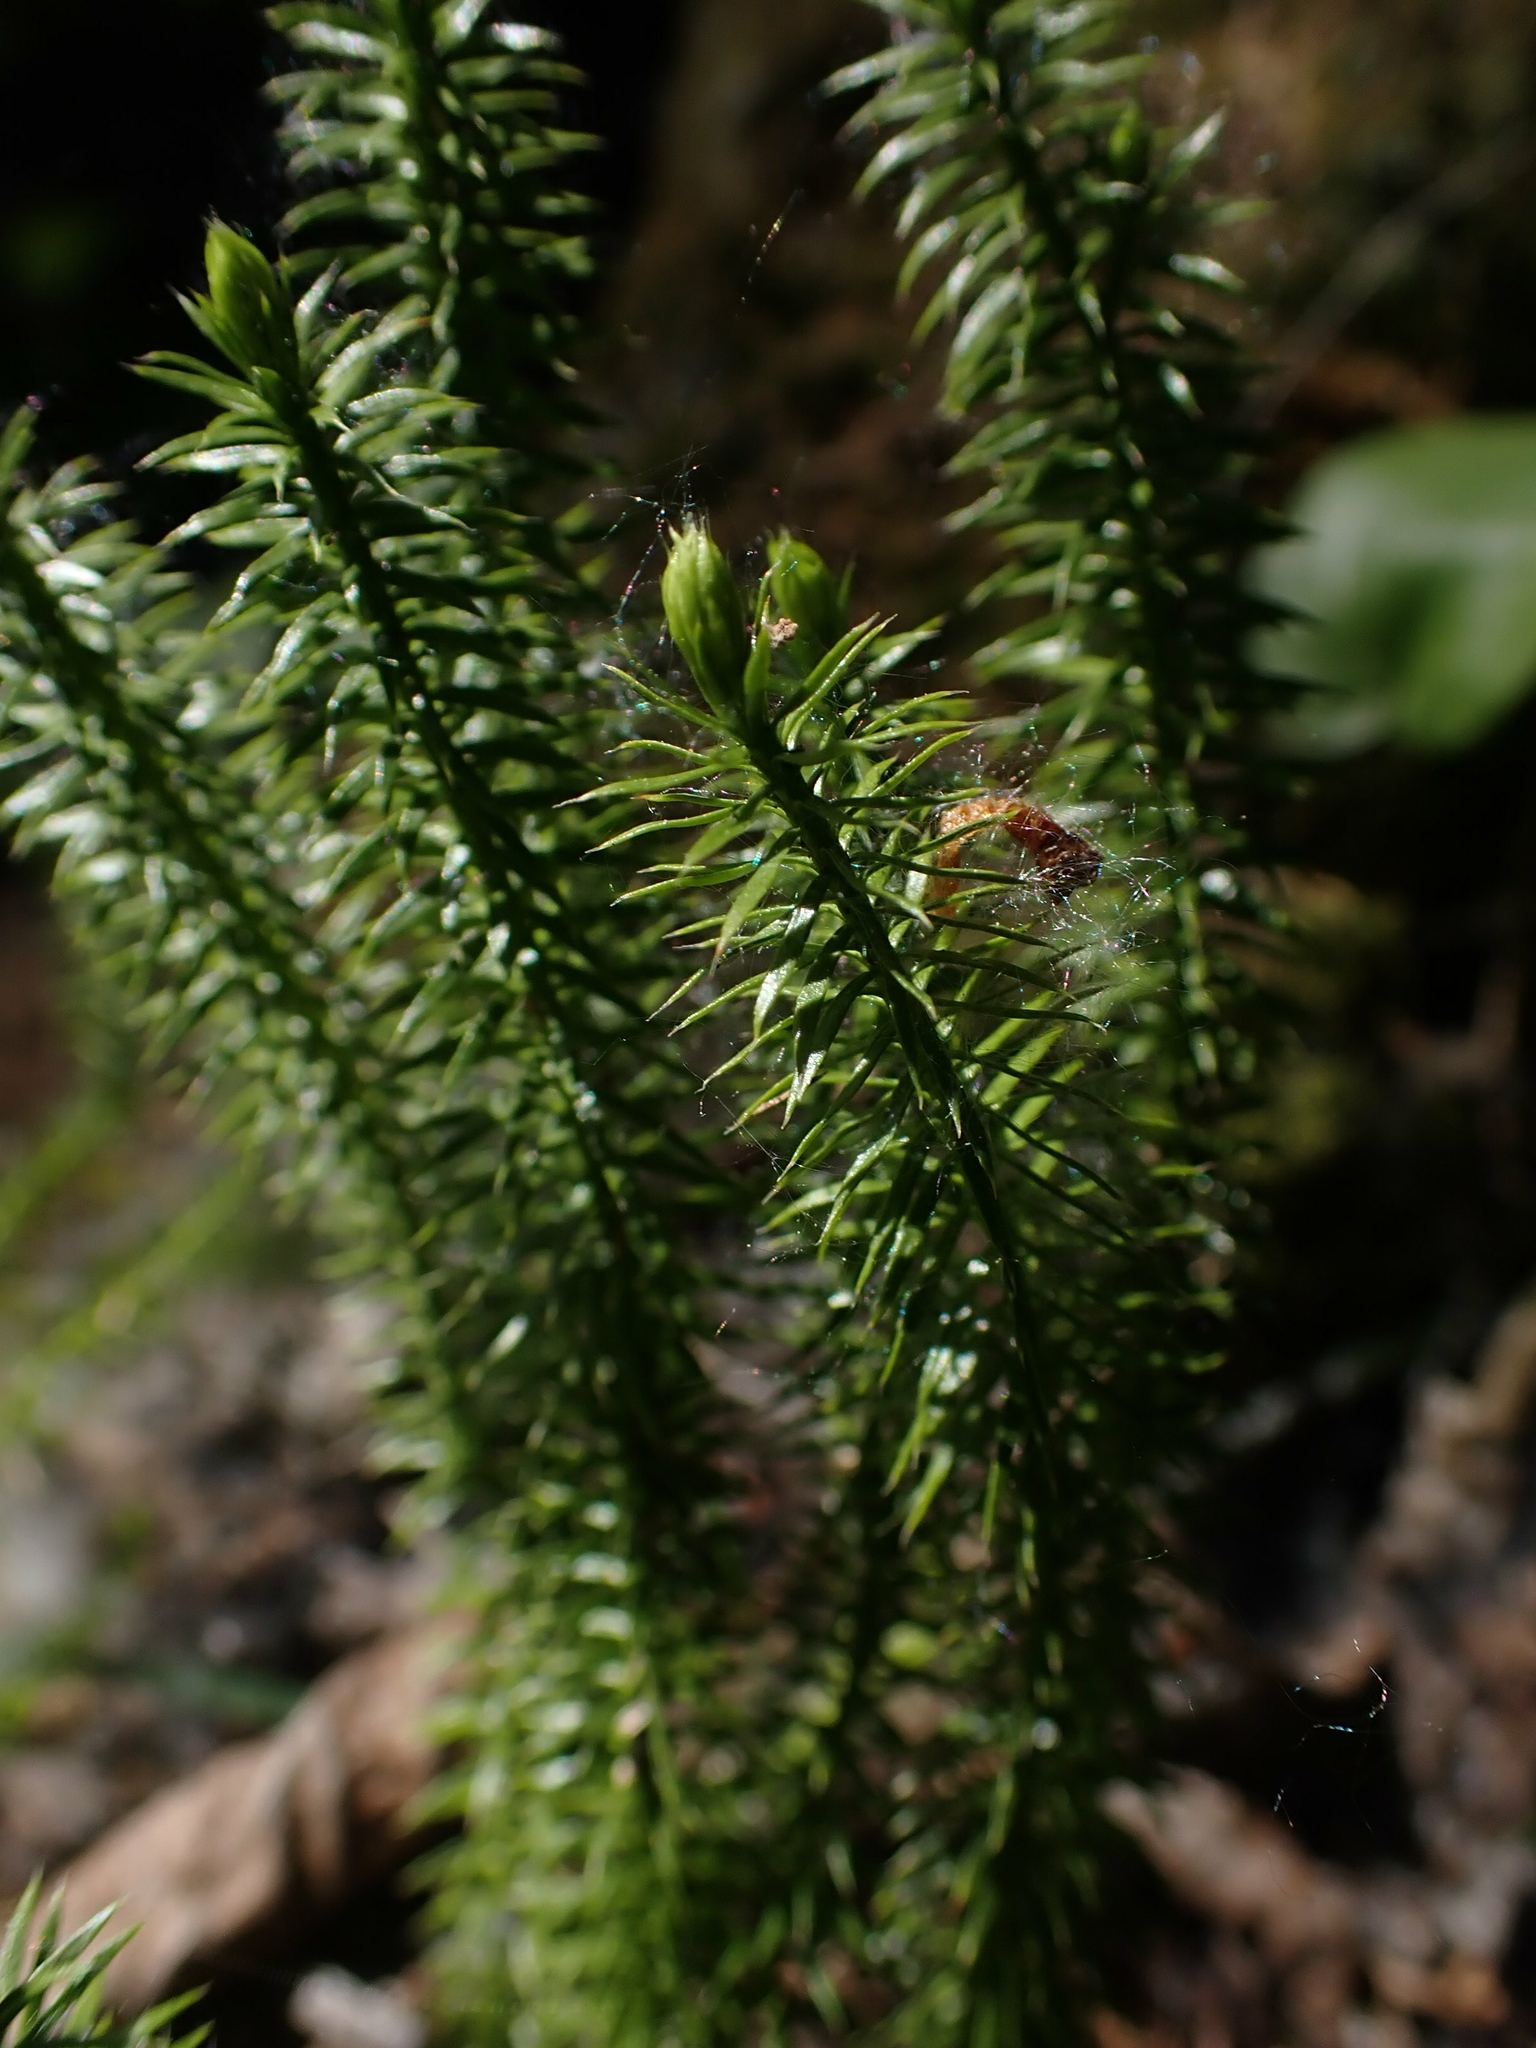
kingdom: Plantae
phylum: Tracheophyta
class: Lycopodiopsida
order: Lycopodiales
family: Lycopodiaceae
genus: Spinulum
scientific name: Spinulum annotinum
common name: Interrupted club-moss
